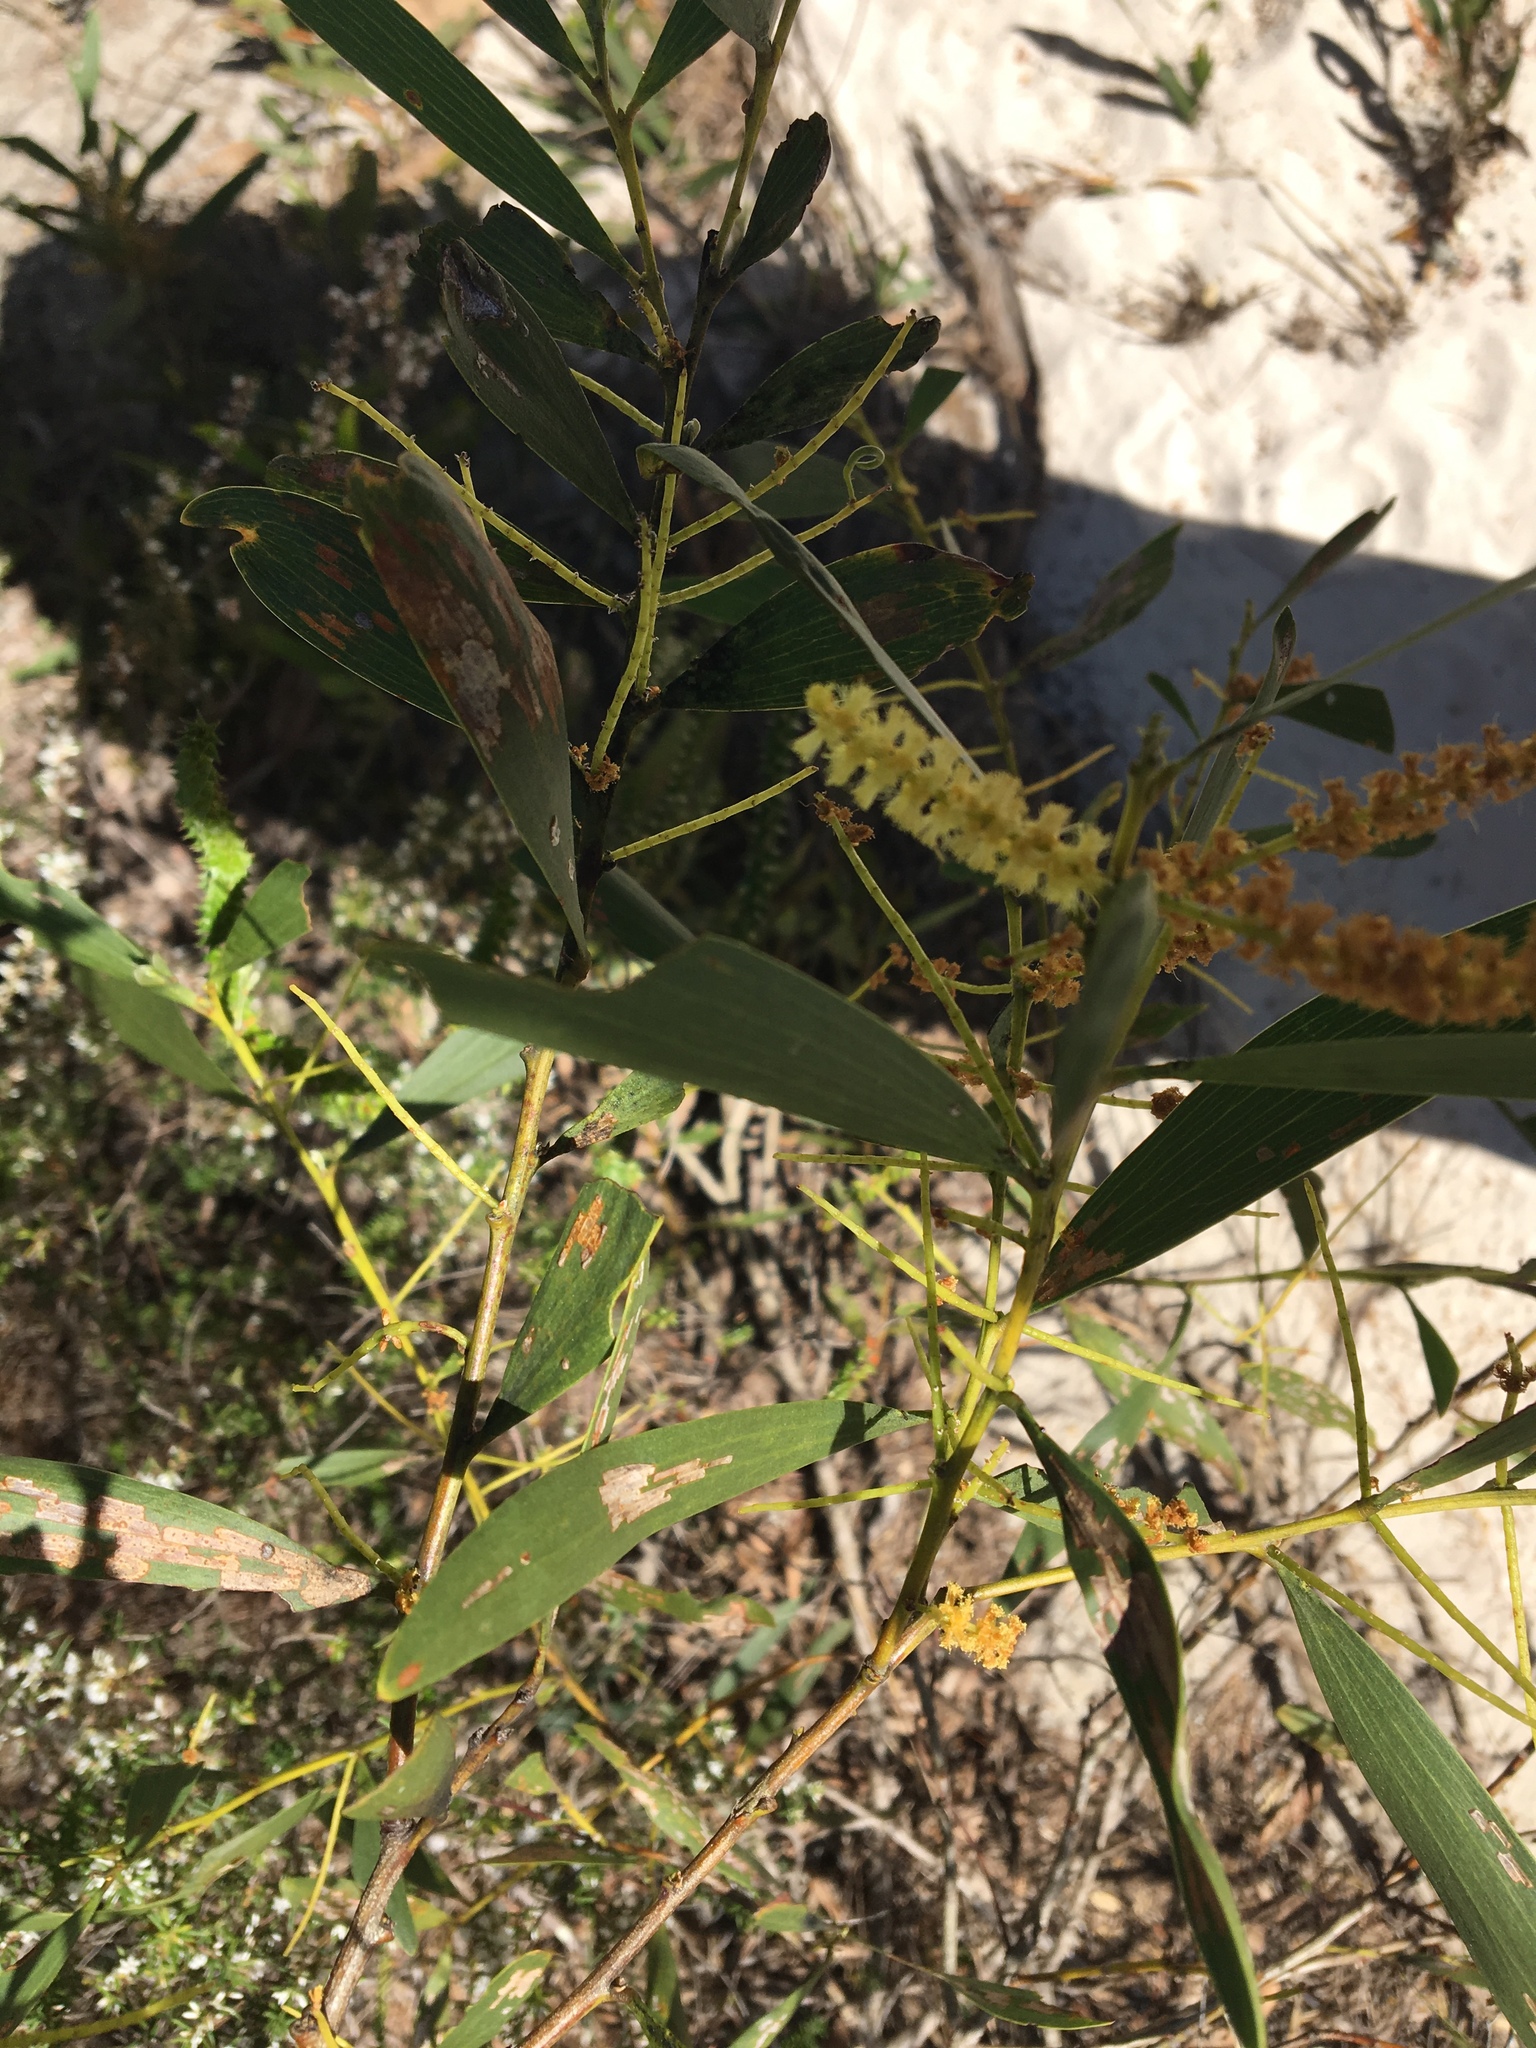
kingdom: Plantae
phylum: Tracheophyta
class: Magnoliopsida
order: Fabales
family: Fabaceae
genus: Acacia
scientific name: Acacia longifolia
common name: Sydney golden wattle
